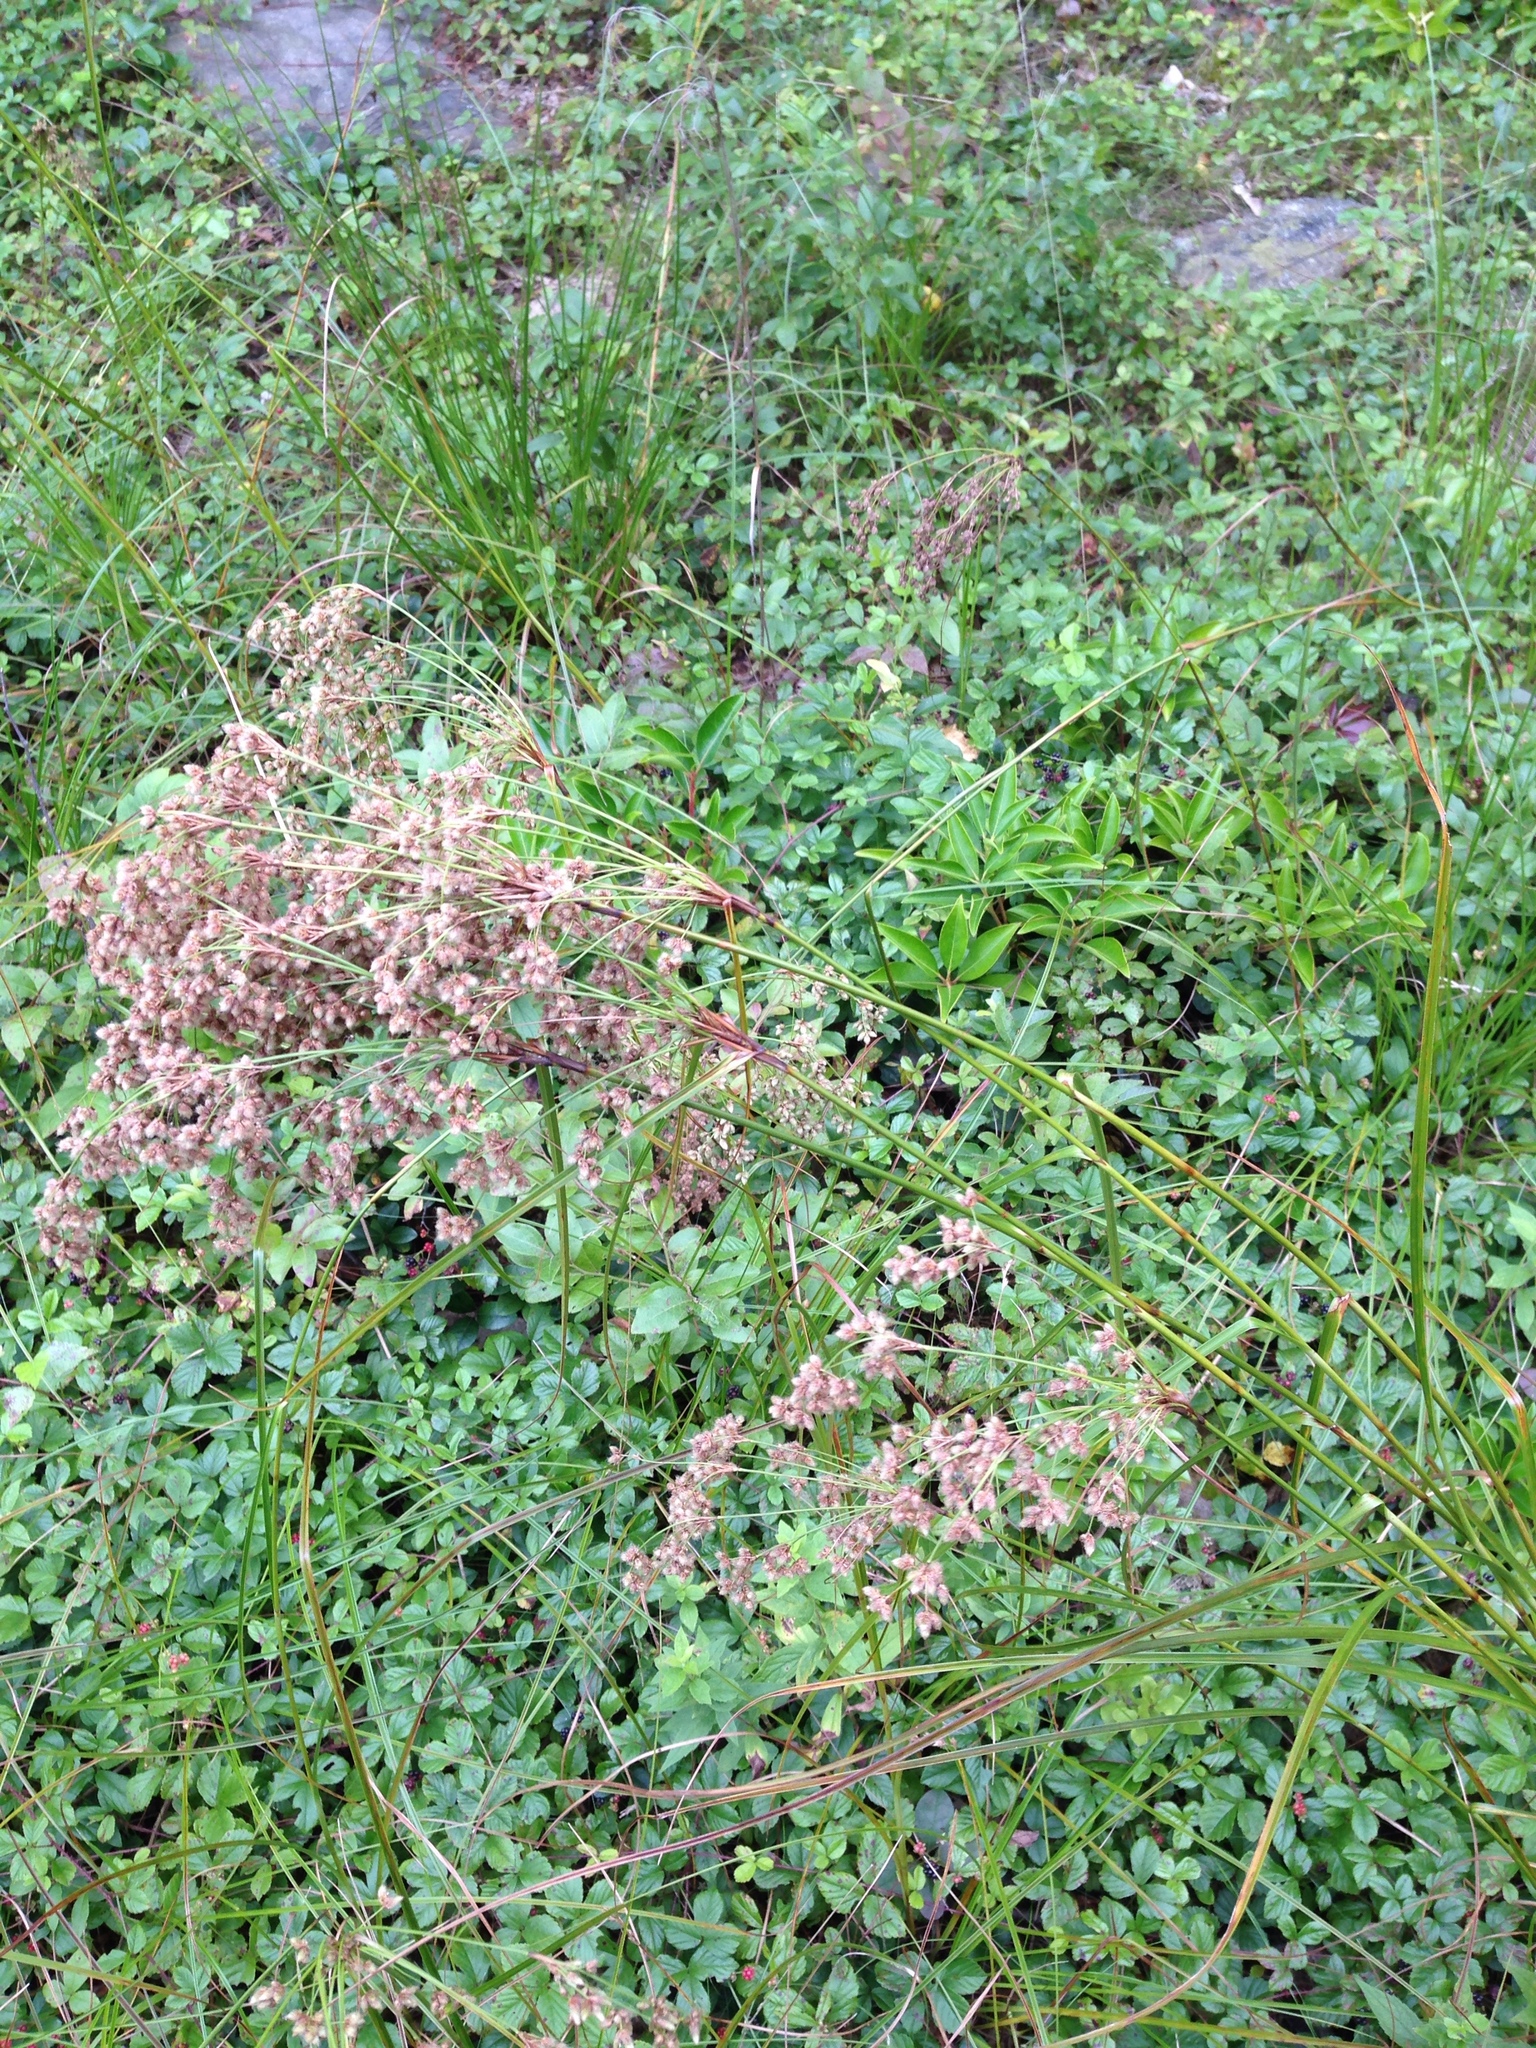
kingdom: Plantae
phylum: Tracheophyta
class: Liliopsida
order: Poales
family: Cyperaceae
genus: Scirpus
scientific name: Scirpus cyperinus
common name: Black-sheathed bulrush
